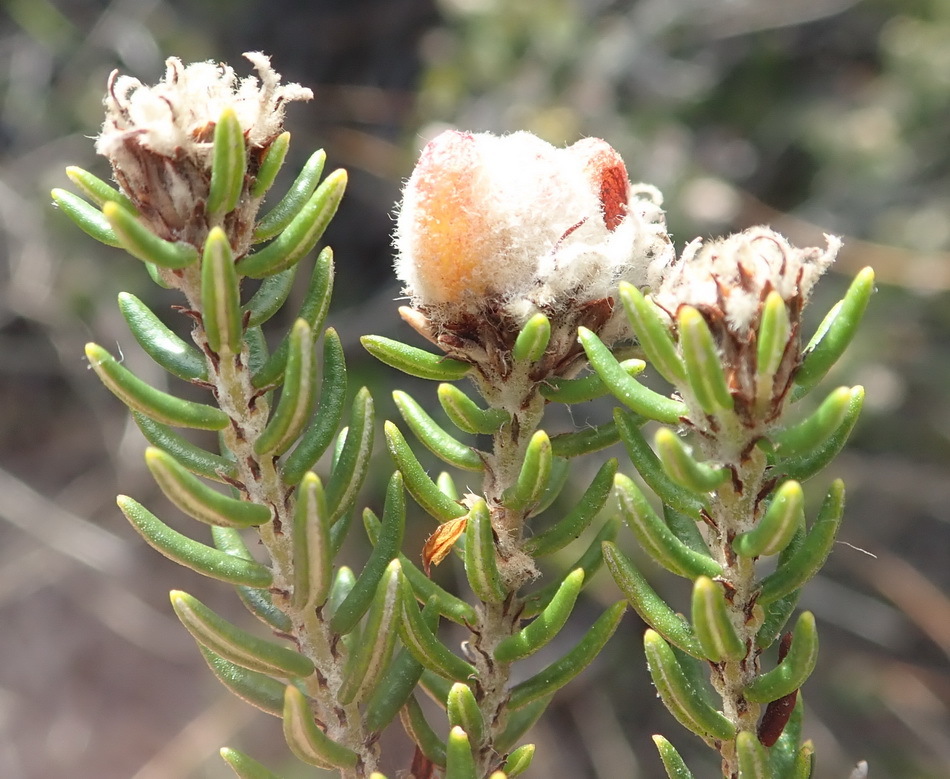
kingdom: Plantae
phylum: Tracheophyta
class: Magnoliopsida
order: Rosales
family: Rhamnaceae
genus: Trichocephalus
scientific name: Trichocephalus stipularis
